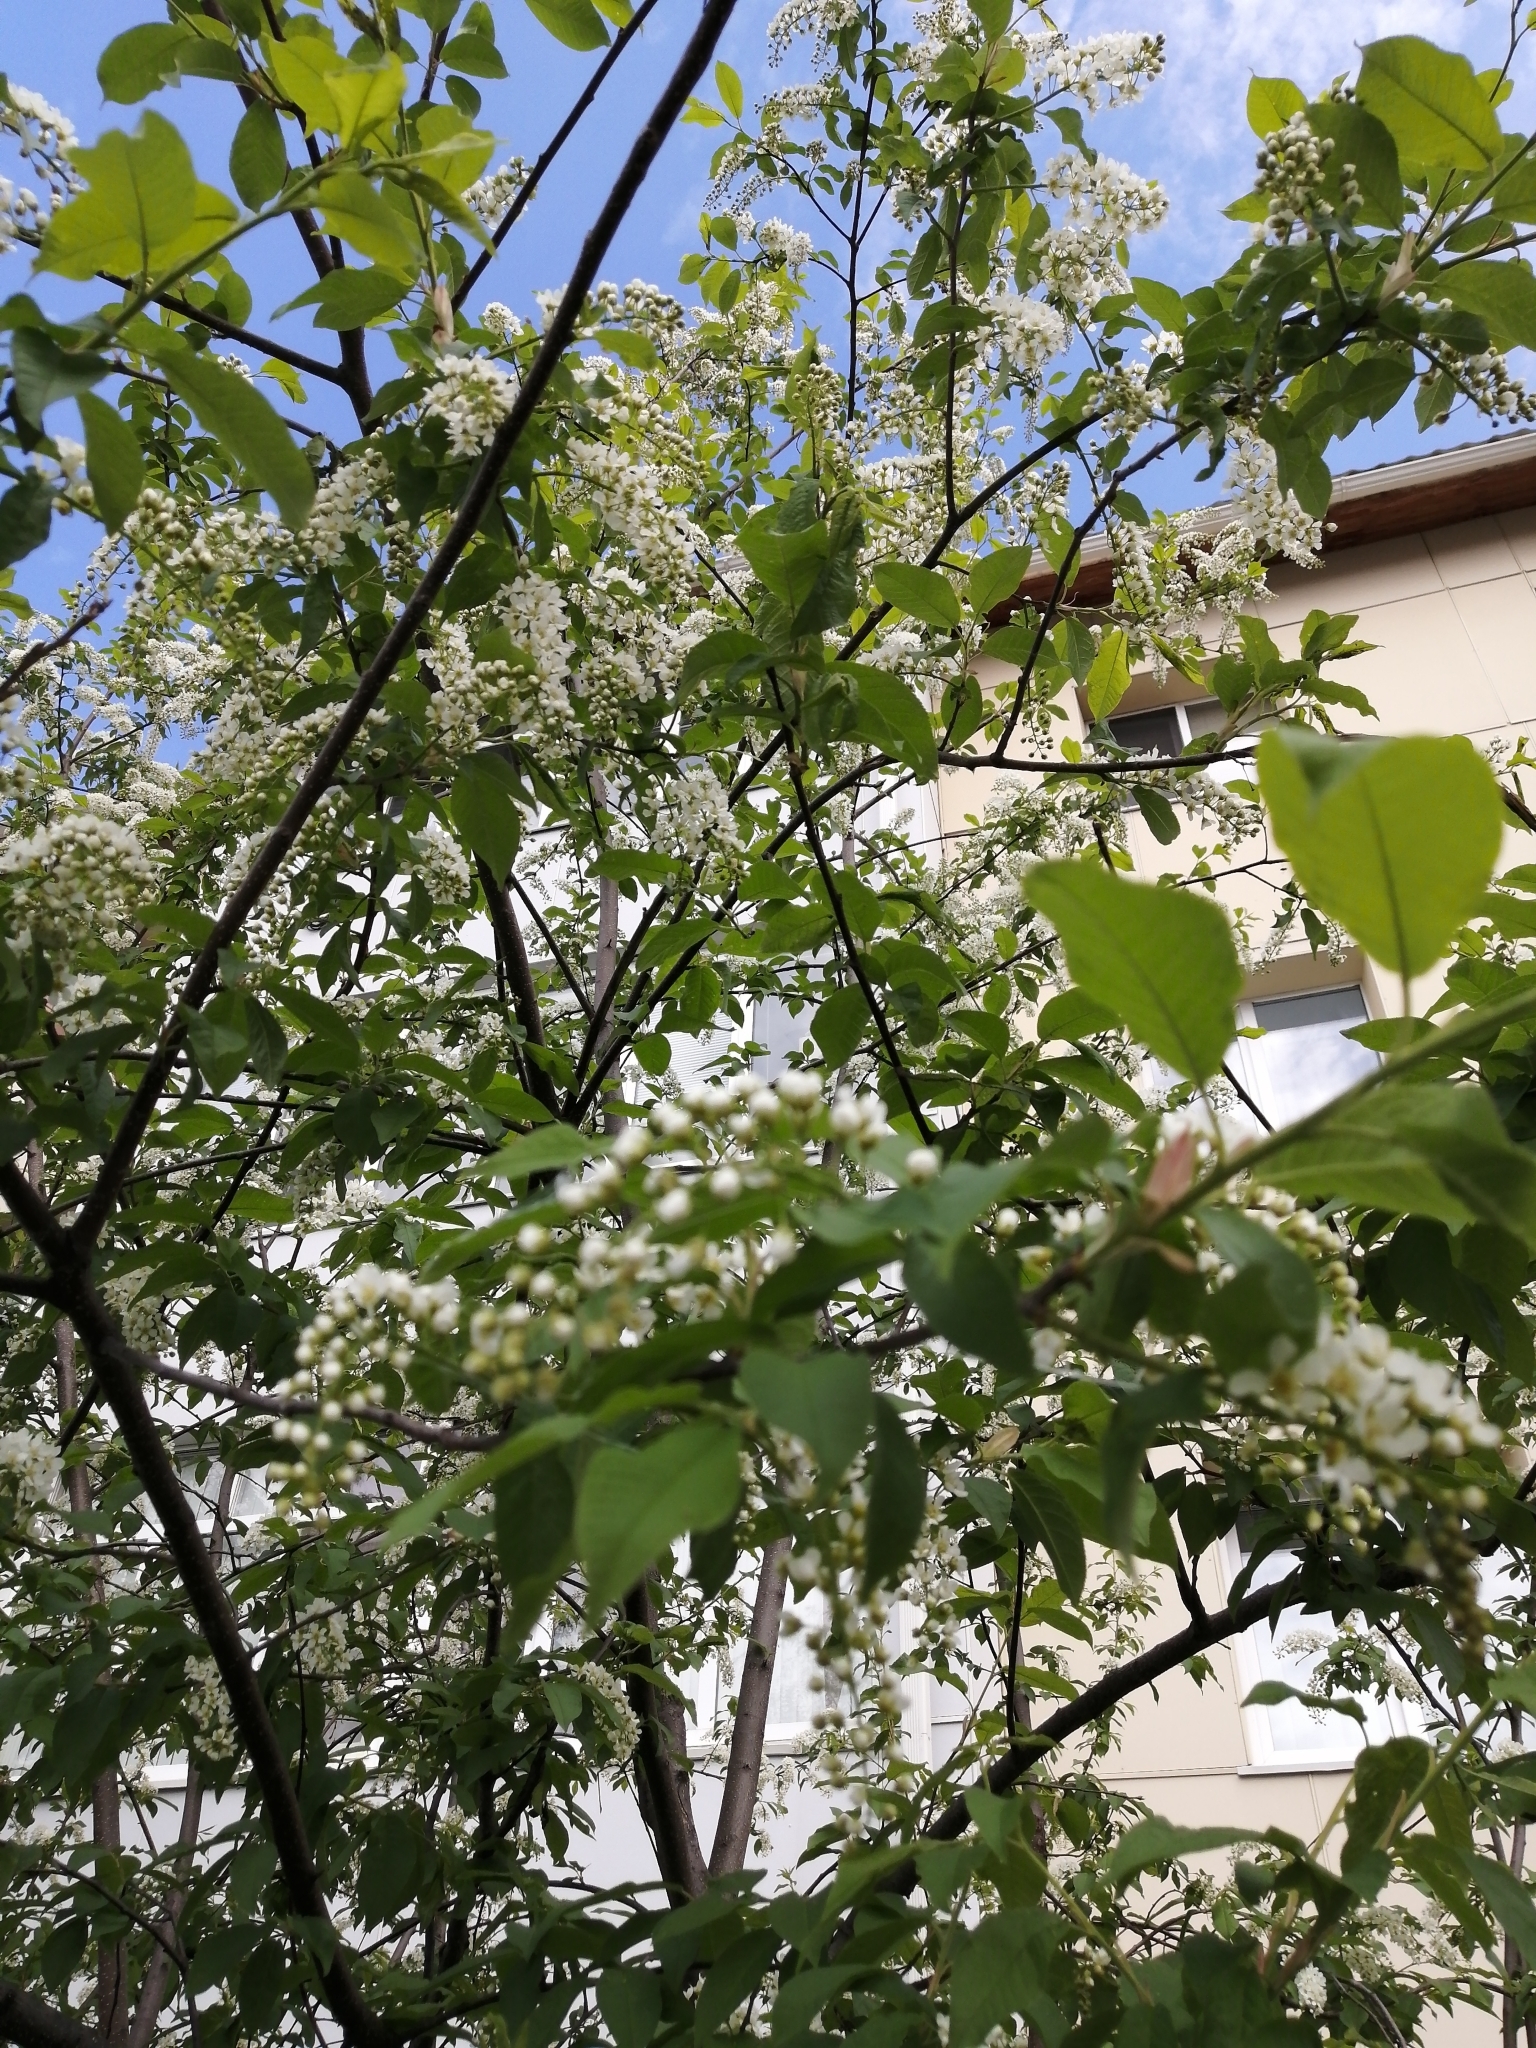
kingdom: Plantae
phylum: Tracheophyta
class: Magnoliopsida
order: Rosales
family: Rosaceae
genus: Prunus
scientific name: Prunus padus
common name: Bird cherry
